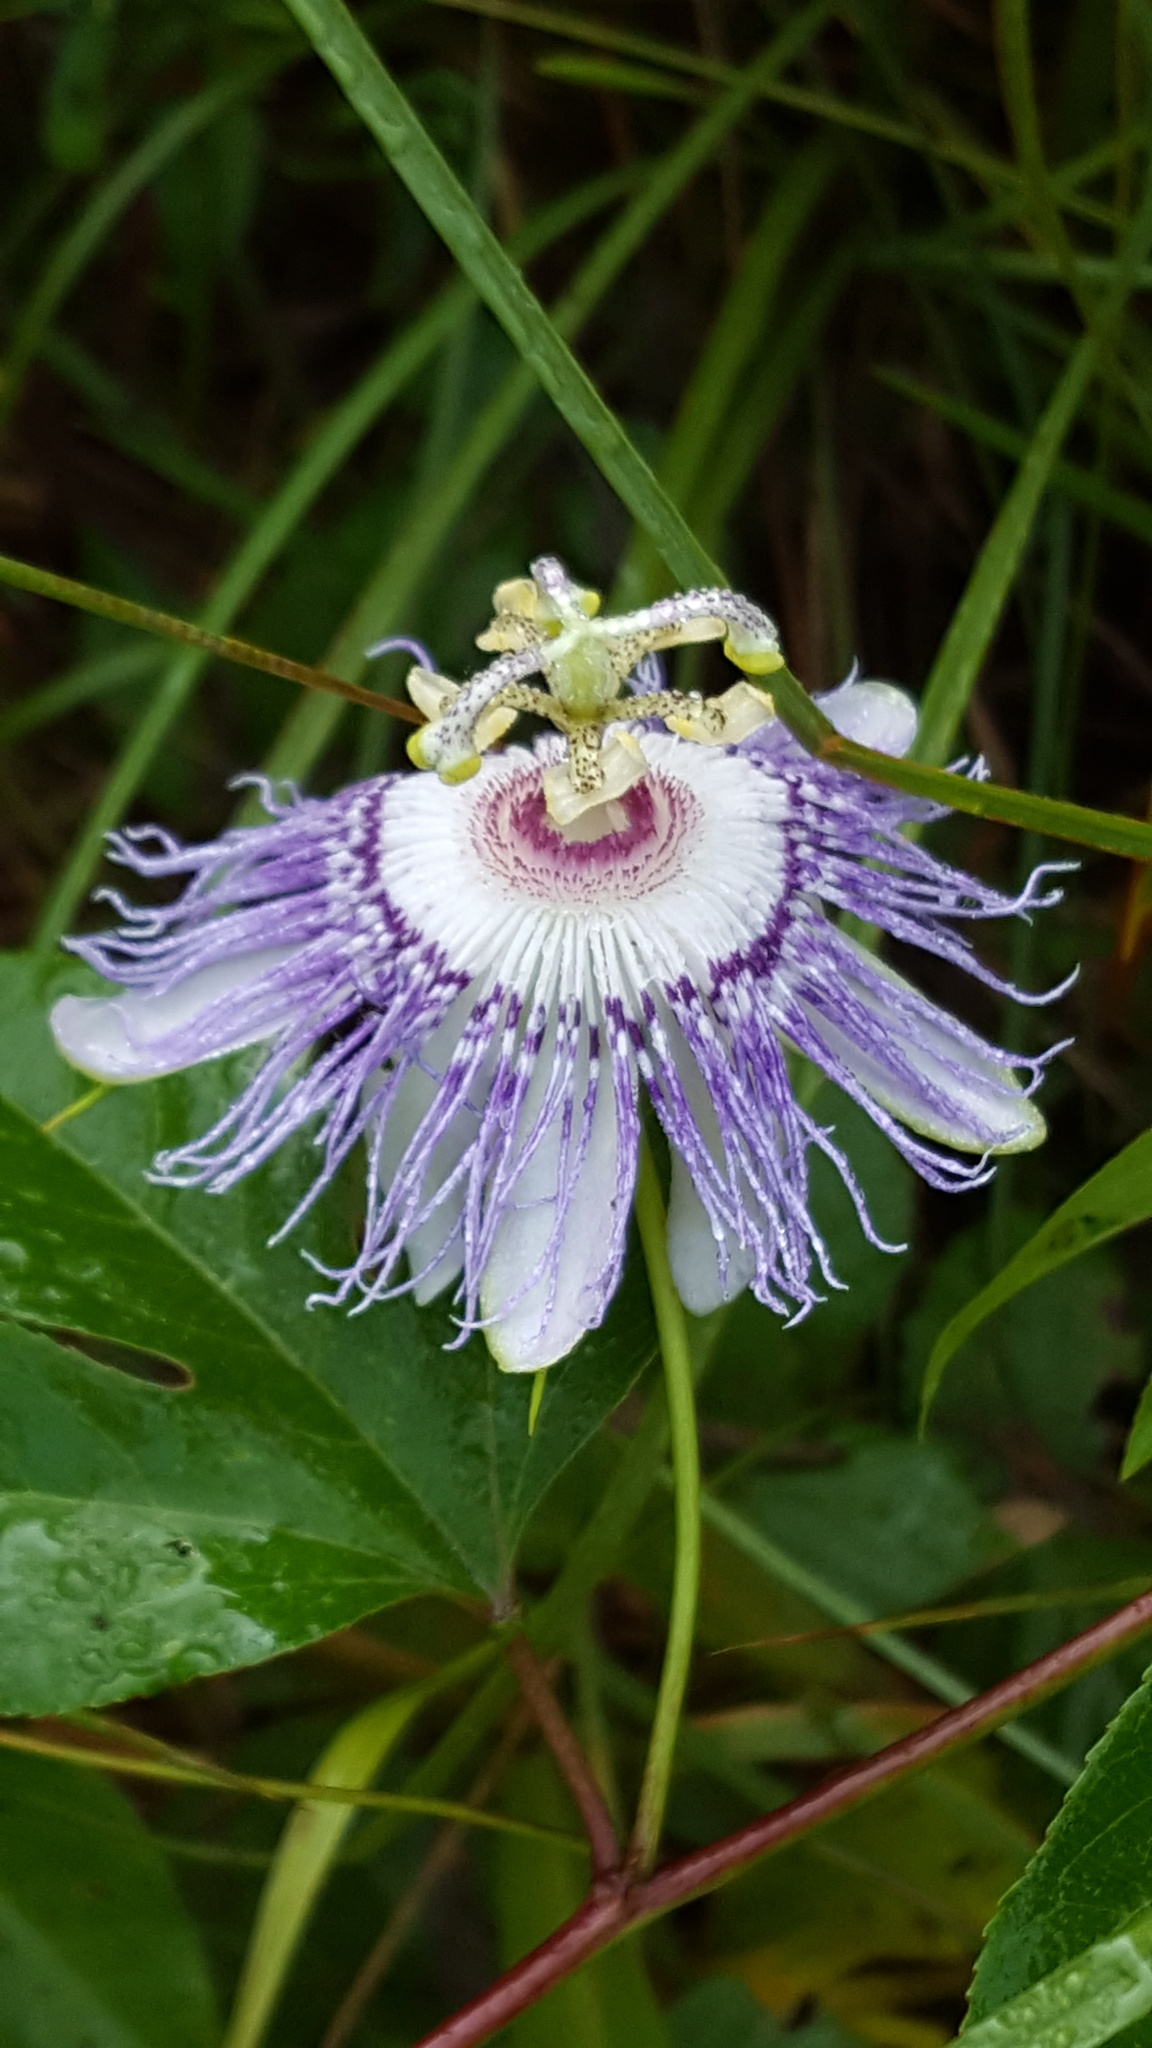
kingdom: Plantae
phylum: Tracheophyta
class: Magnoliopsida
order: Malpighiales
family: Passifloraceae
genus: Passiflora
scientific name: Passiflora incarnata
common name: Apricot-vine
